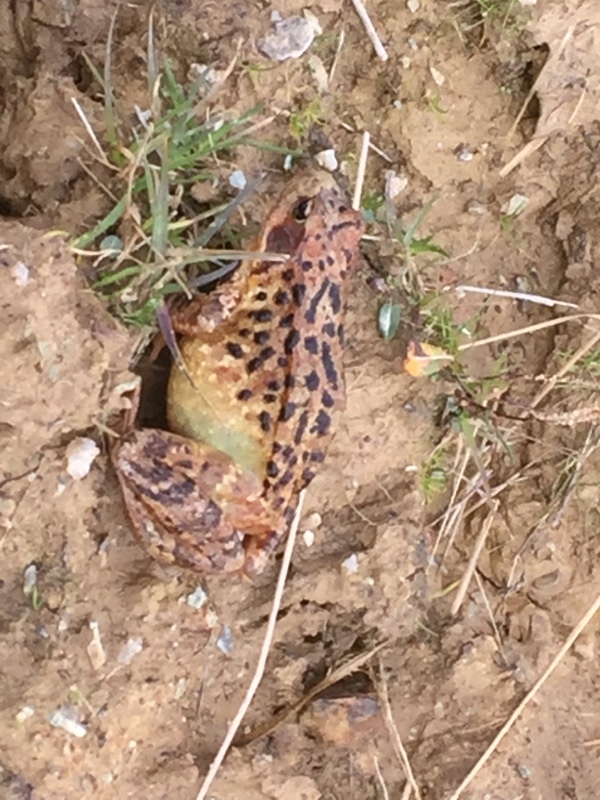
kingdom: Animalia
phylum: Chordata
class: Amphibia
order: Anura
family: Ranidae
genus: Rana
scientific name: Rana temporaria
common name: Common frog
